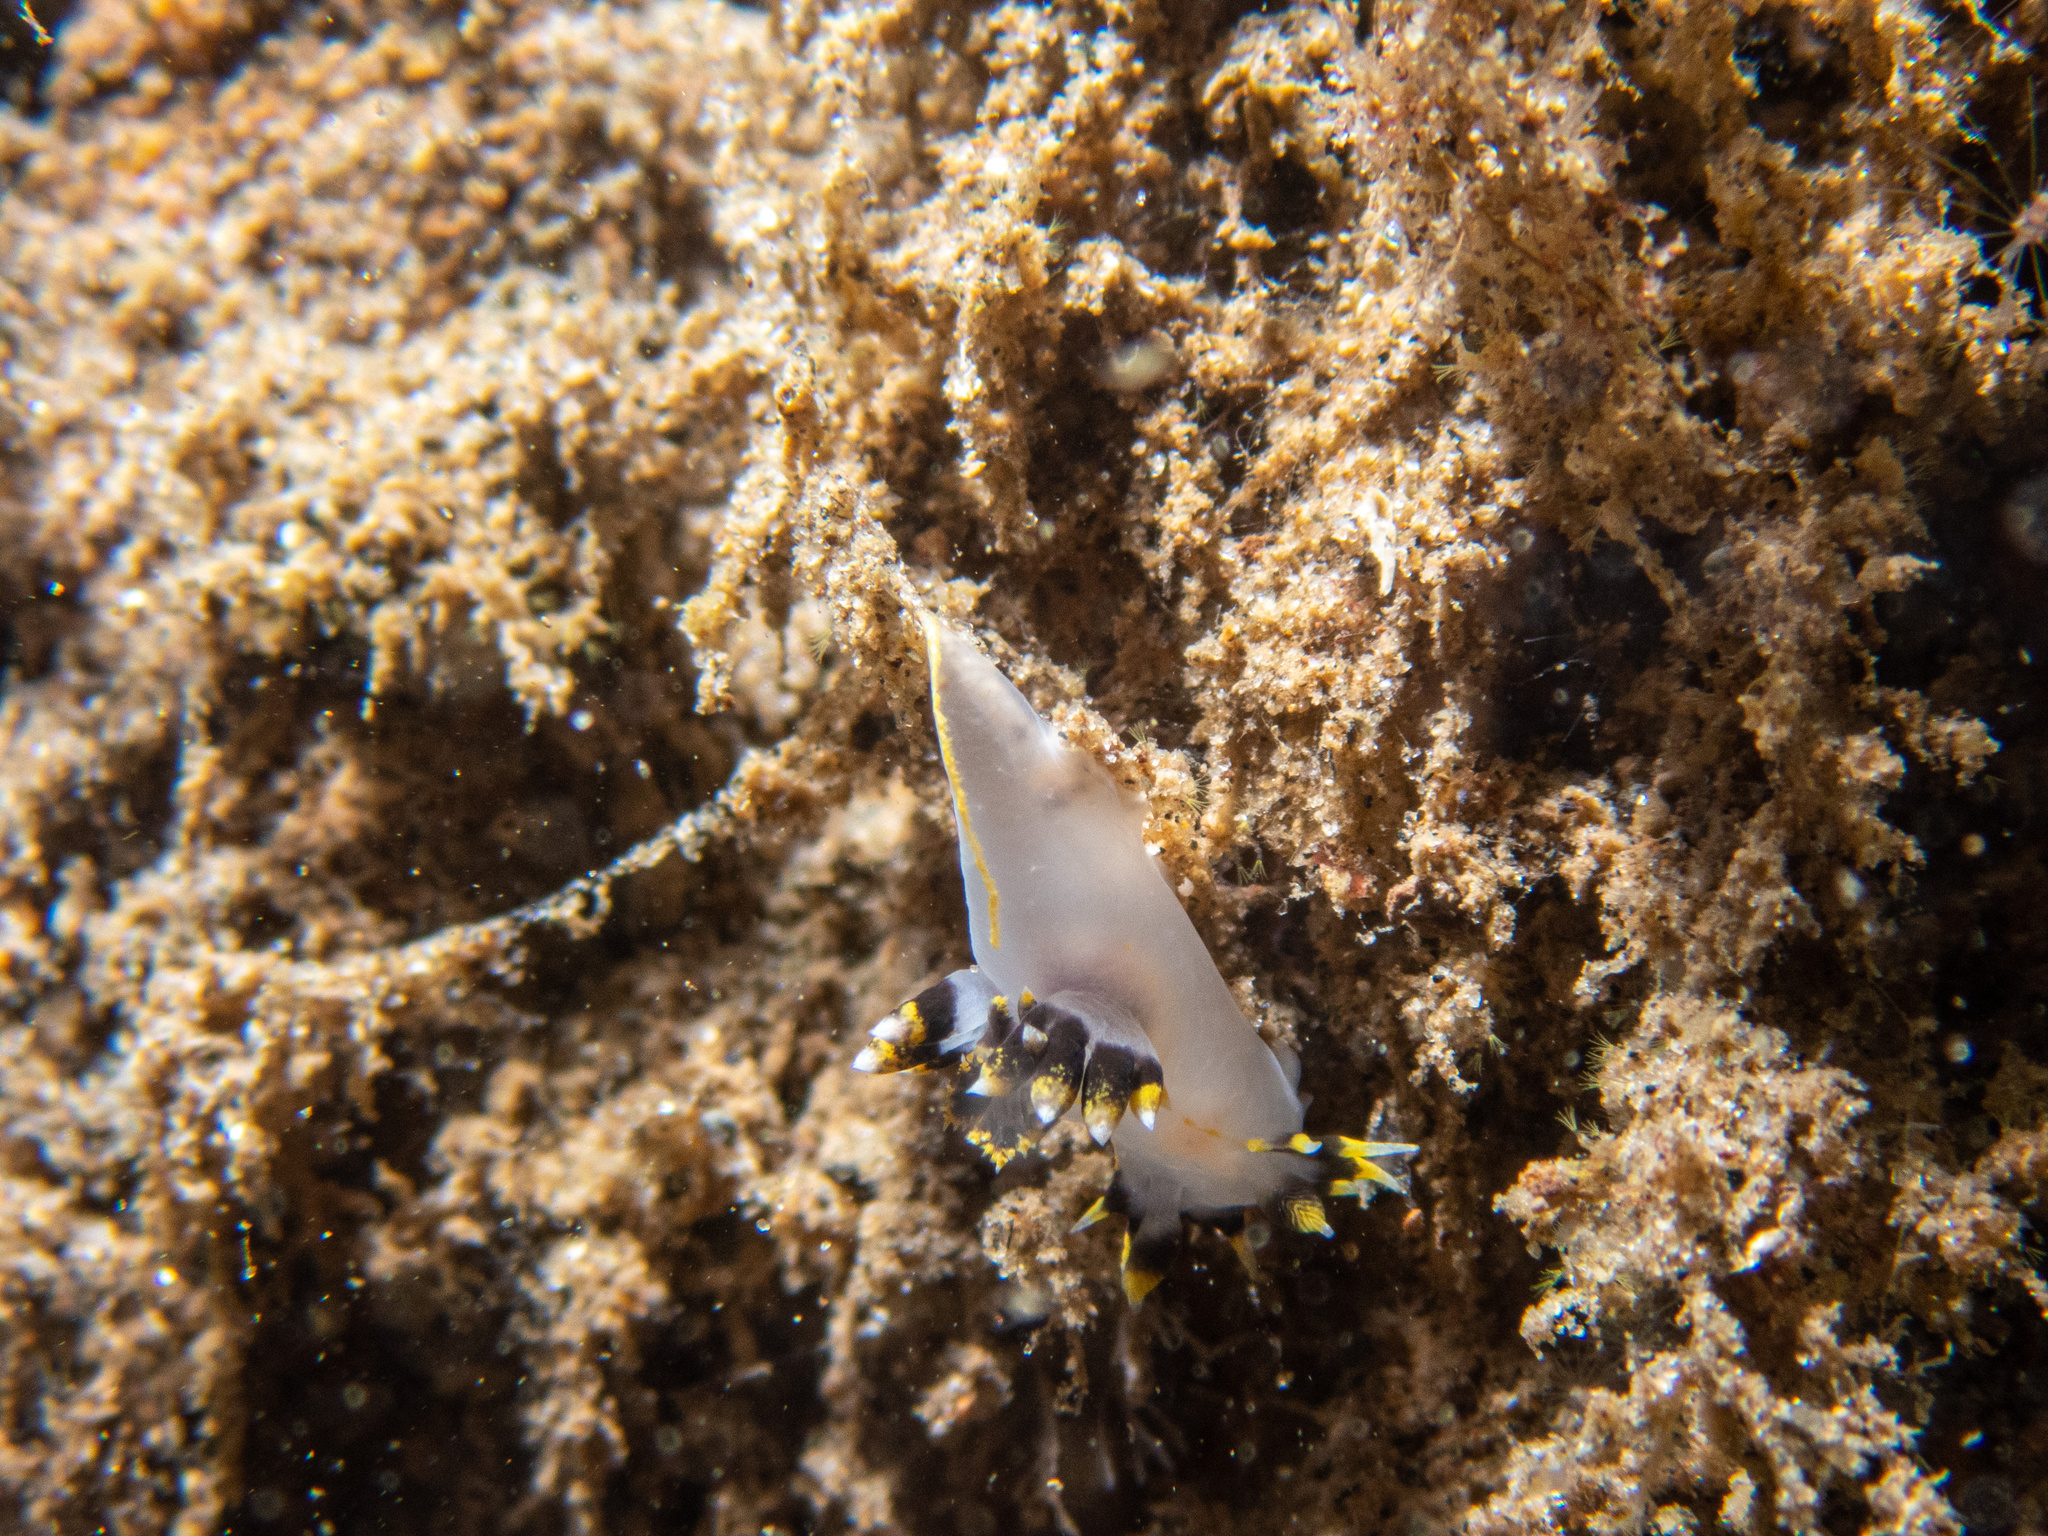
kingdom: Animalia
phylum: Mollusca
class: Gastropoda
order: Nudibranchia
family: Polyceridae
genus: Polycera
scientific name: Polycera tricolor
